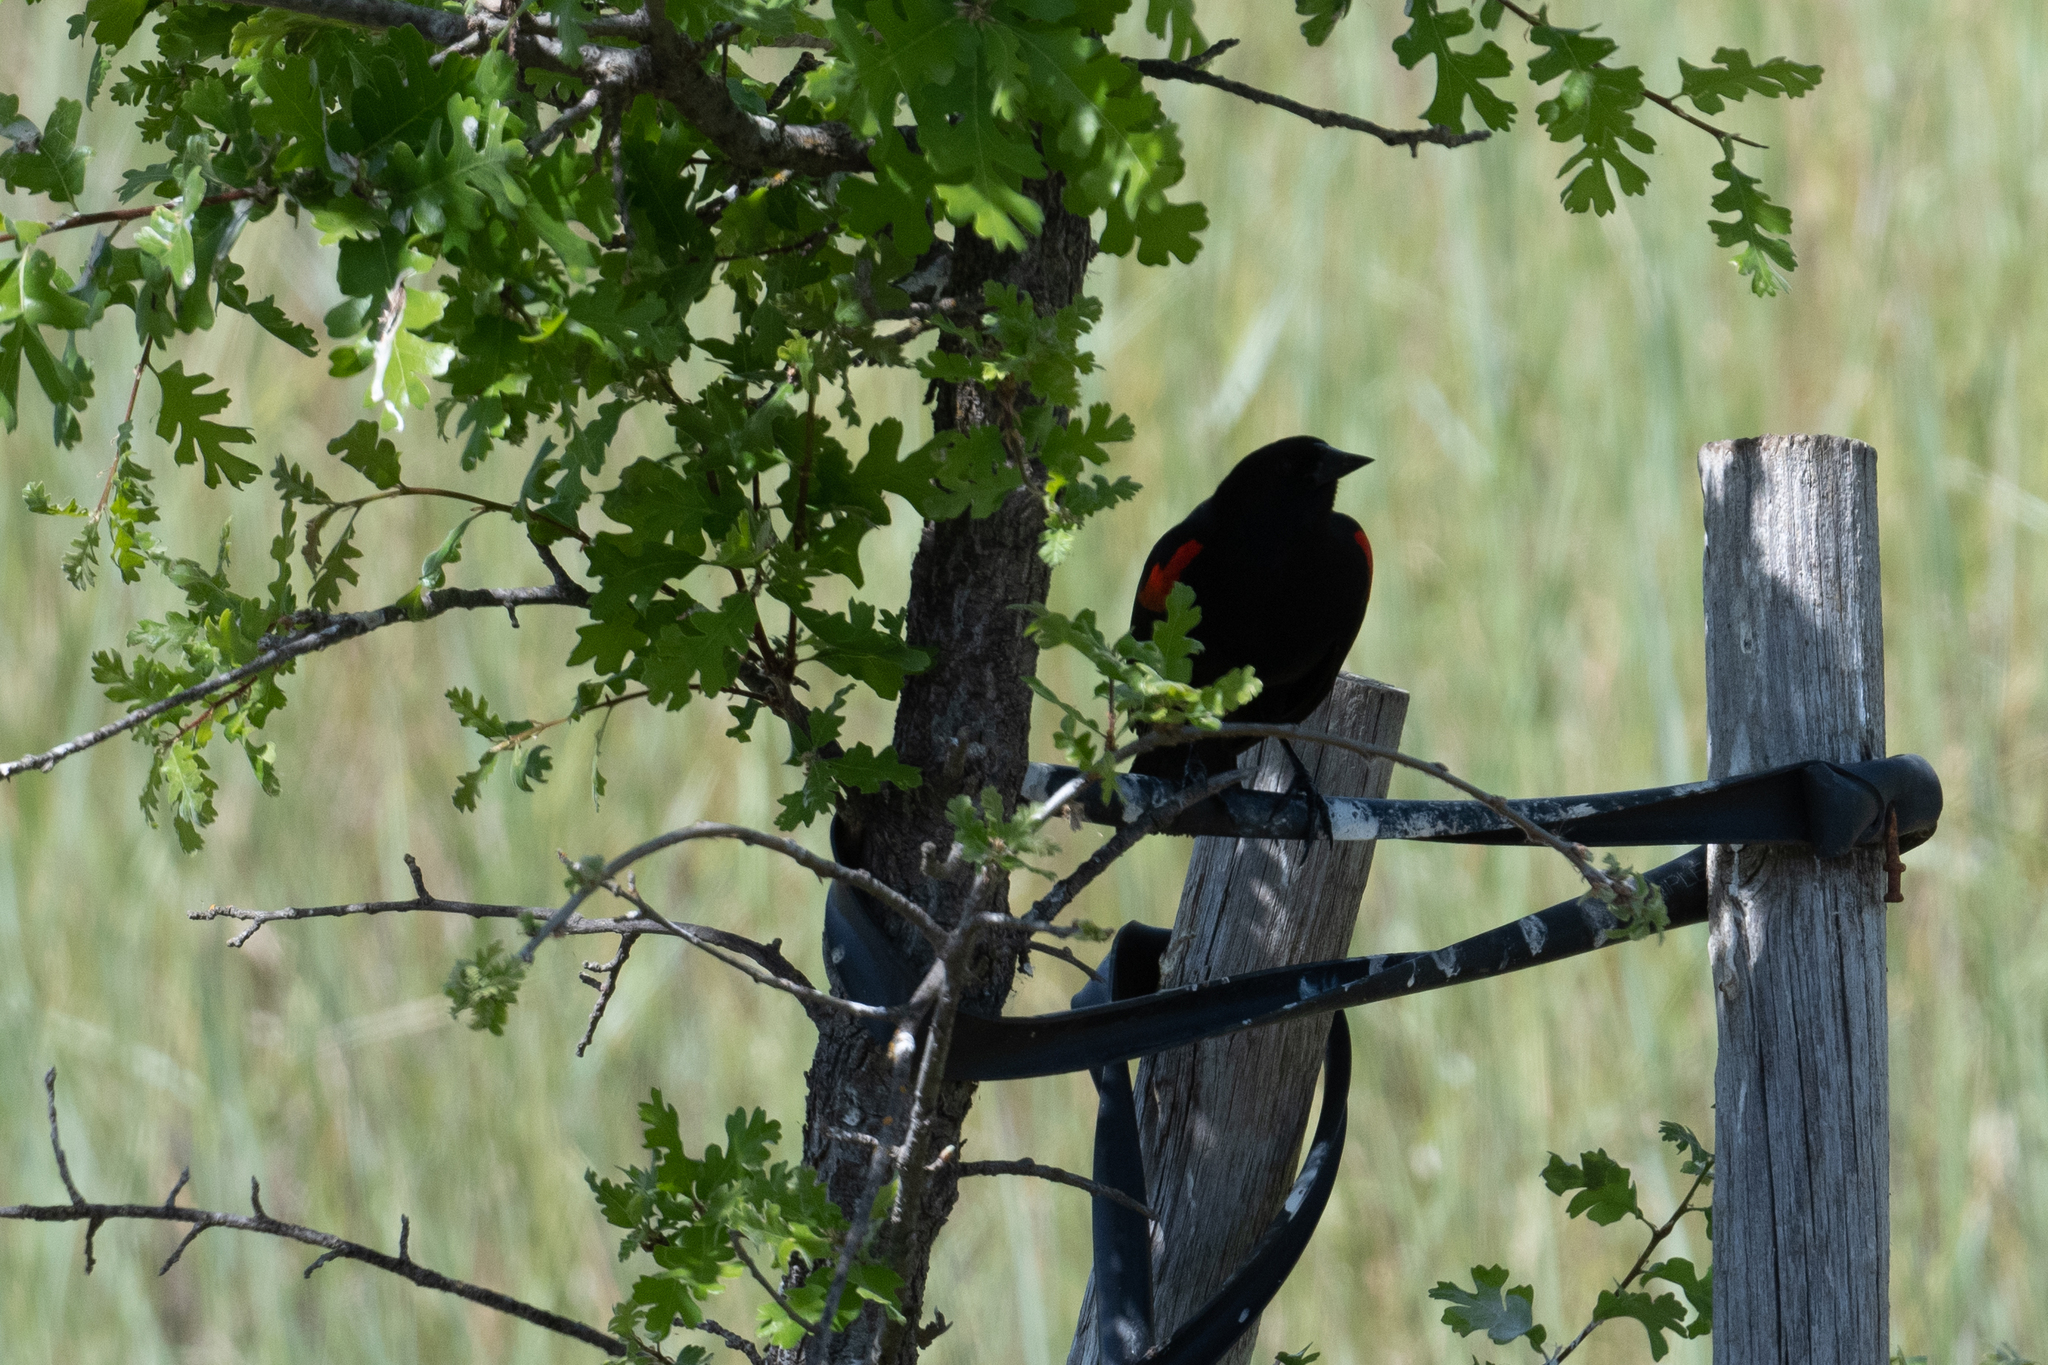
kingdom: Animalia
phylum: Chordata
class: Aves
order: Passeriformes
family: Icteridae
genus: Agelaius
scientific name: Agelaius phoeniceus
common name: Red-winged blackbird
